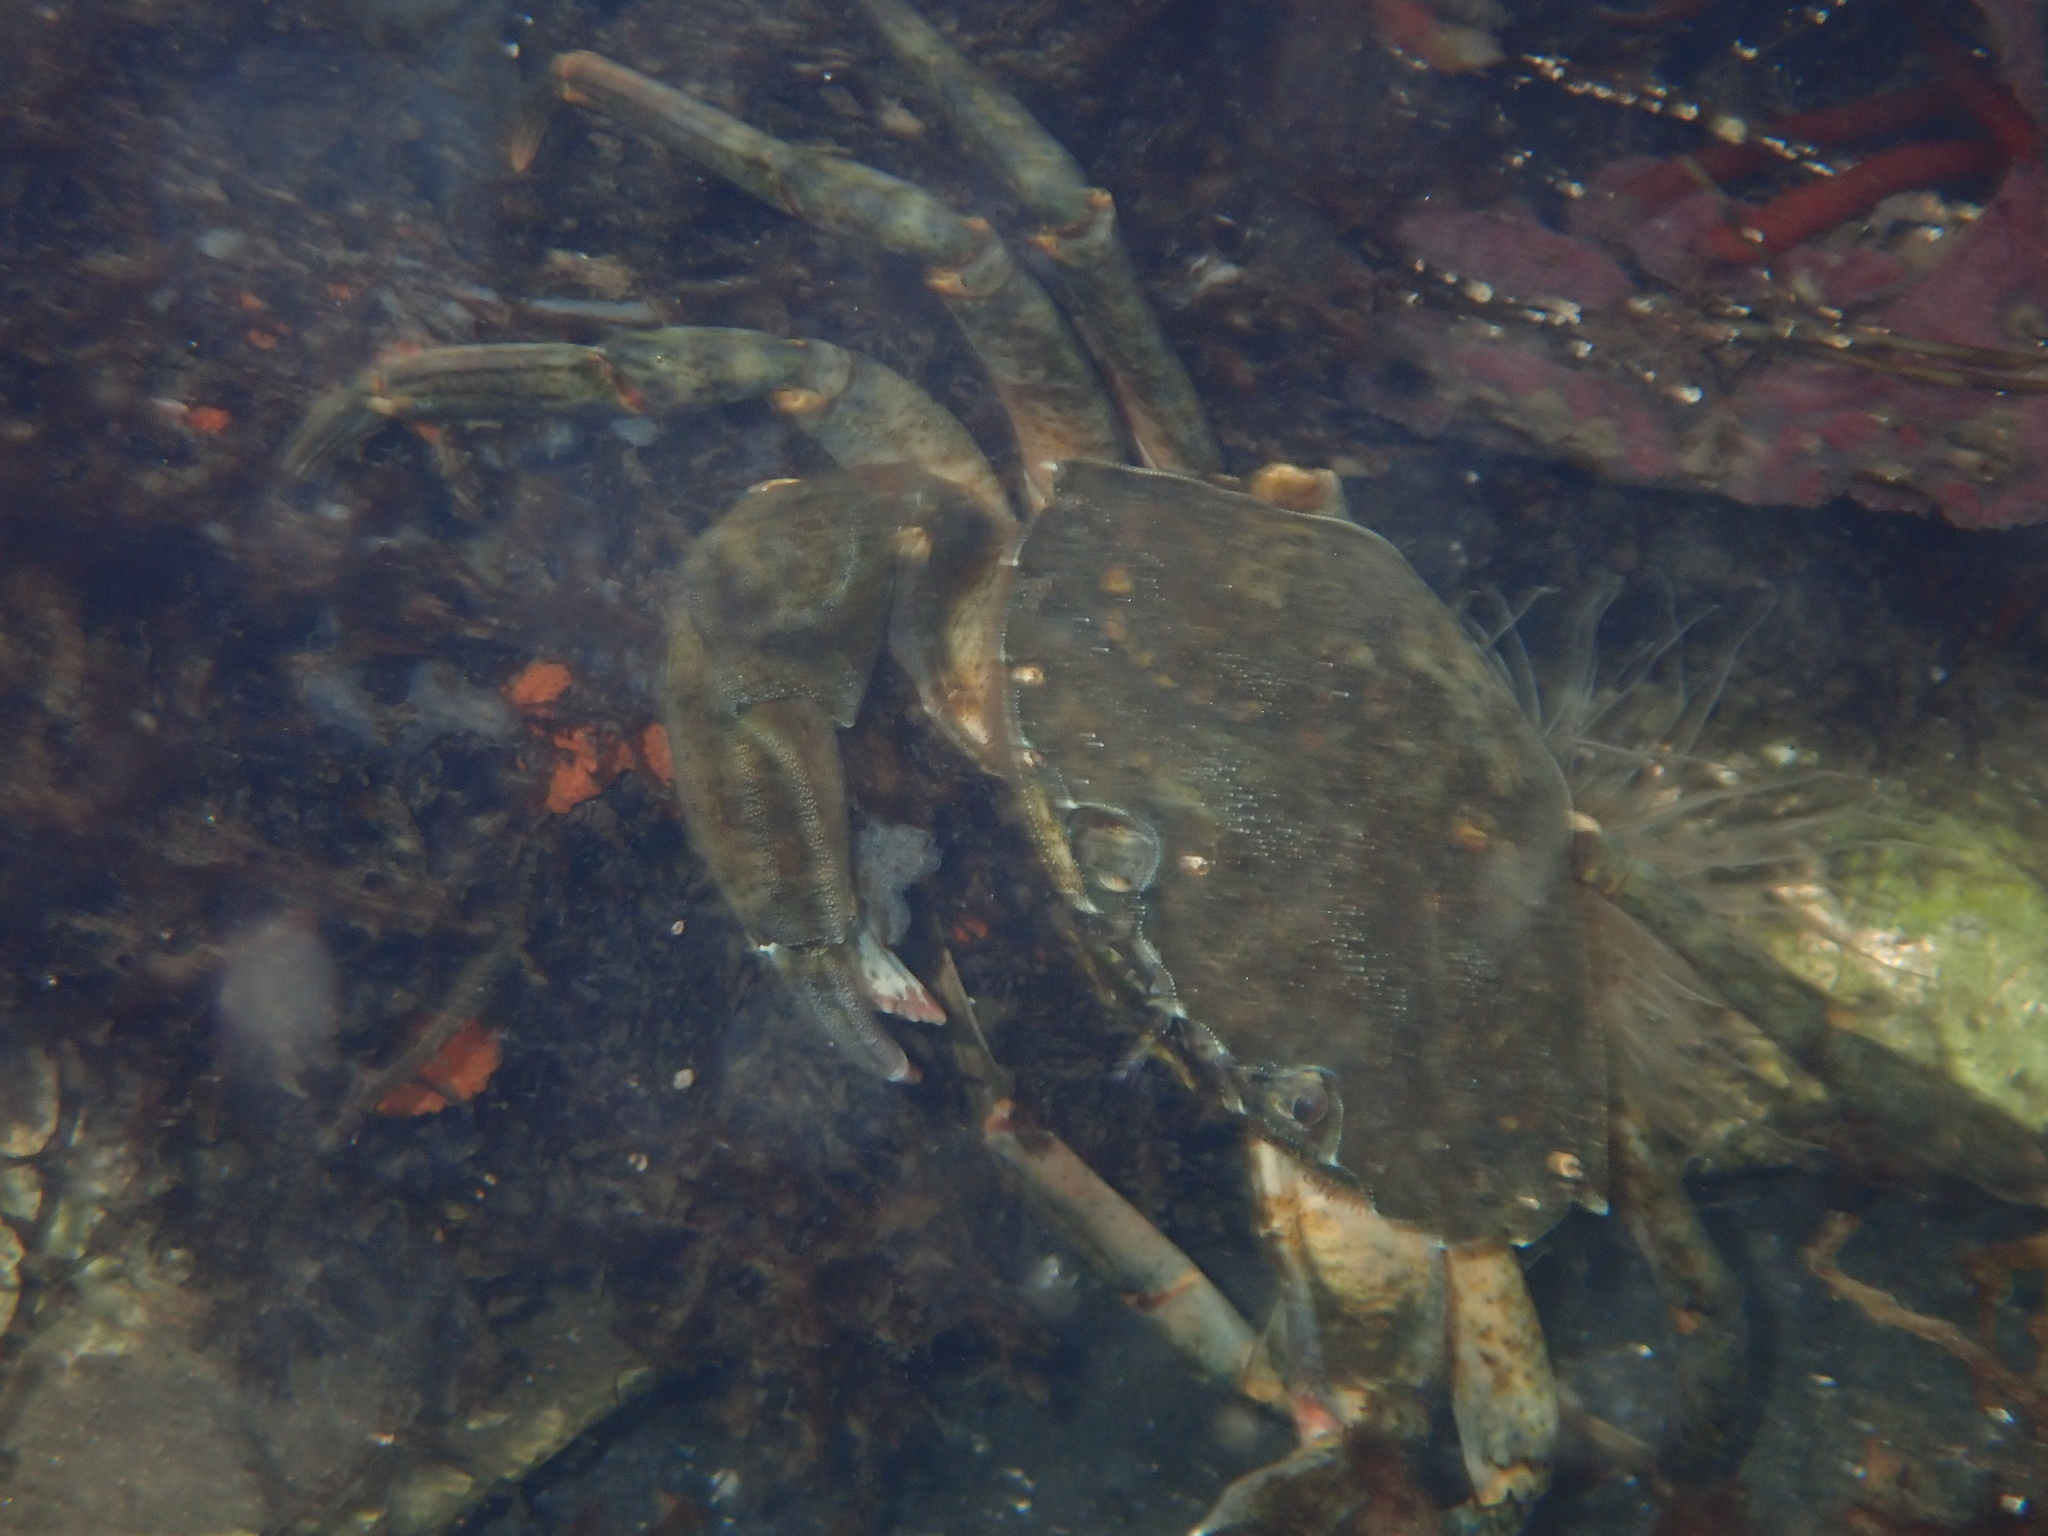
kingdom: Animalia
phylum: Arthropoda
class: Malacostraca
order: Decapoda
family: Carcinidae
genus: Carcinus
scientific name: Carcinus maenas
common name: European green crab
